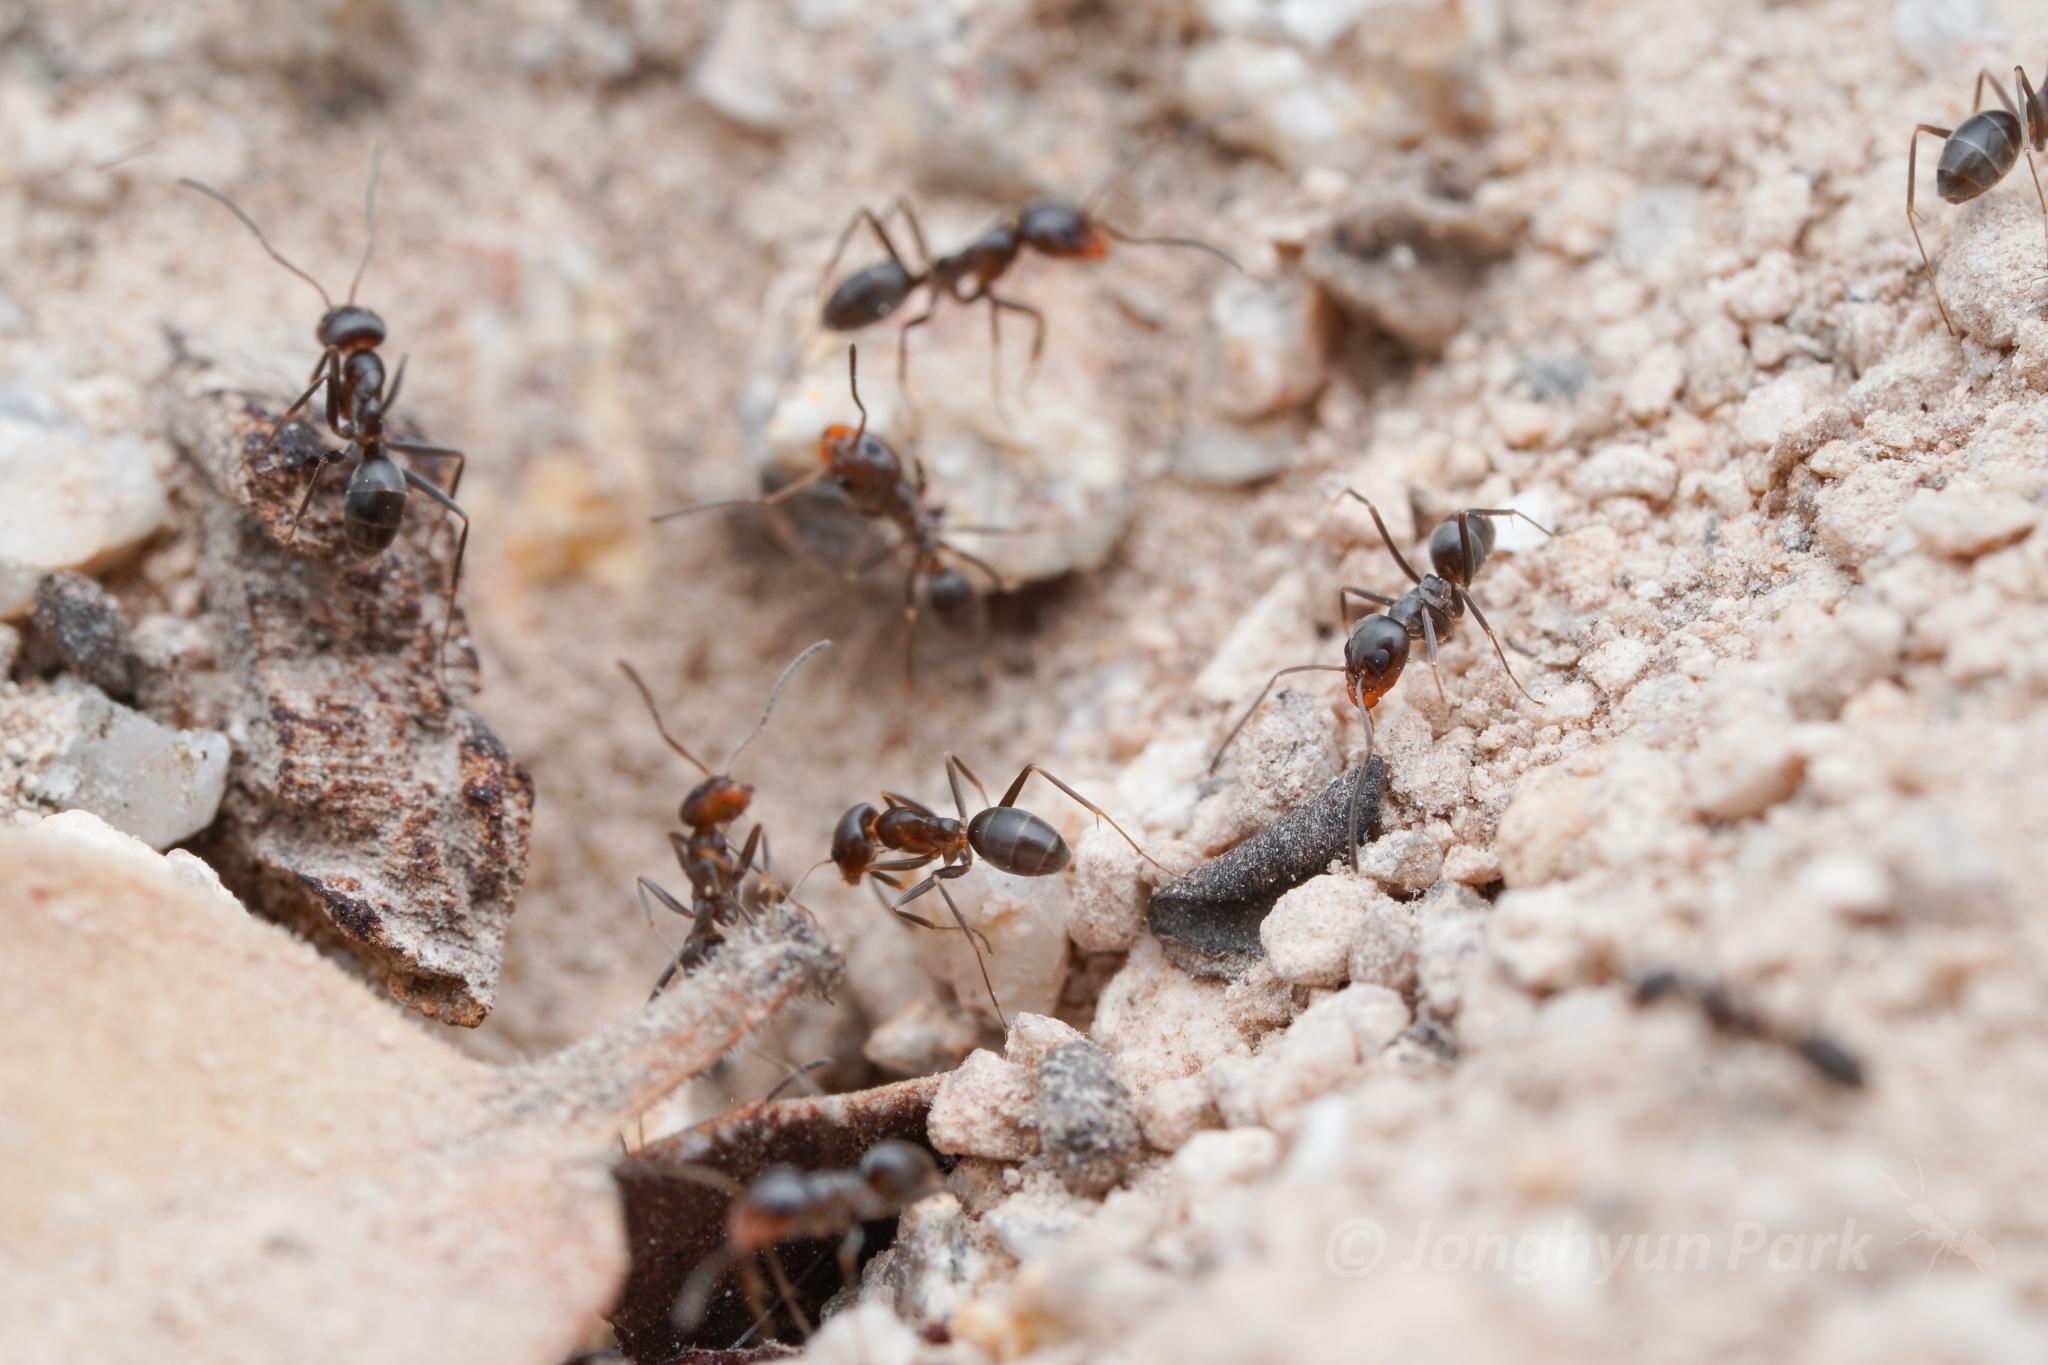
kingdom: Animalia
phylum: Arthropoda
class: Insecta
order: Hymenoptera
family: Formicidae
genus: Dorymyrmex
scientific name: Dorymyrmex insanus
